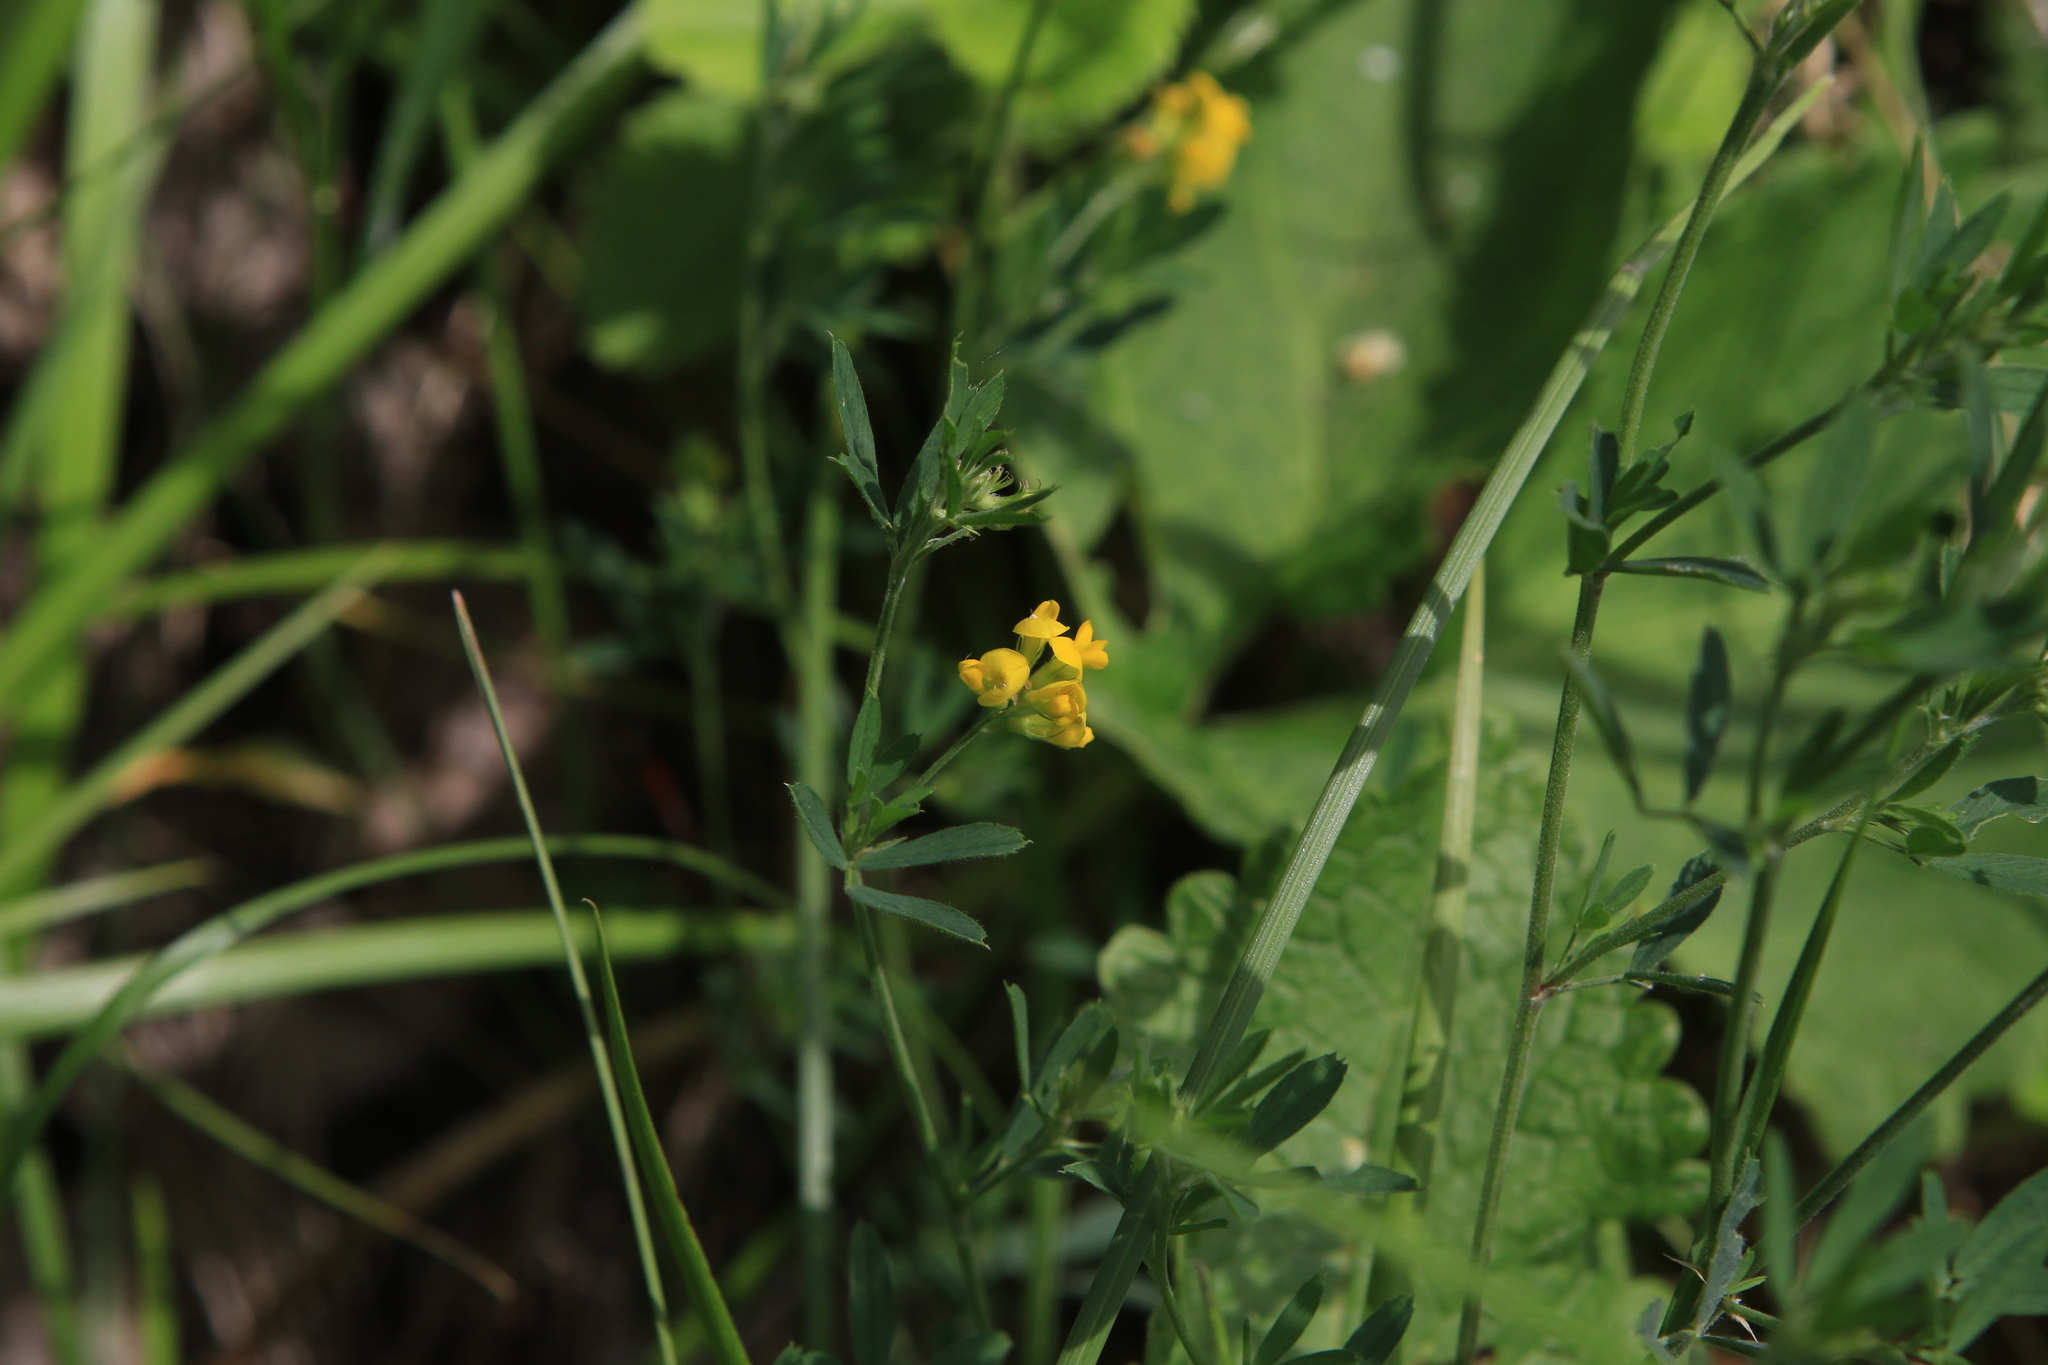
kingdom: Plantae
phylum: Tracheophyta
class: Magnoliopsida
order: Fabales
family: Fabaceae
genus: Medicago
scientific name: Medicago falcata
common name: Sickle medick
